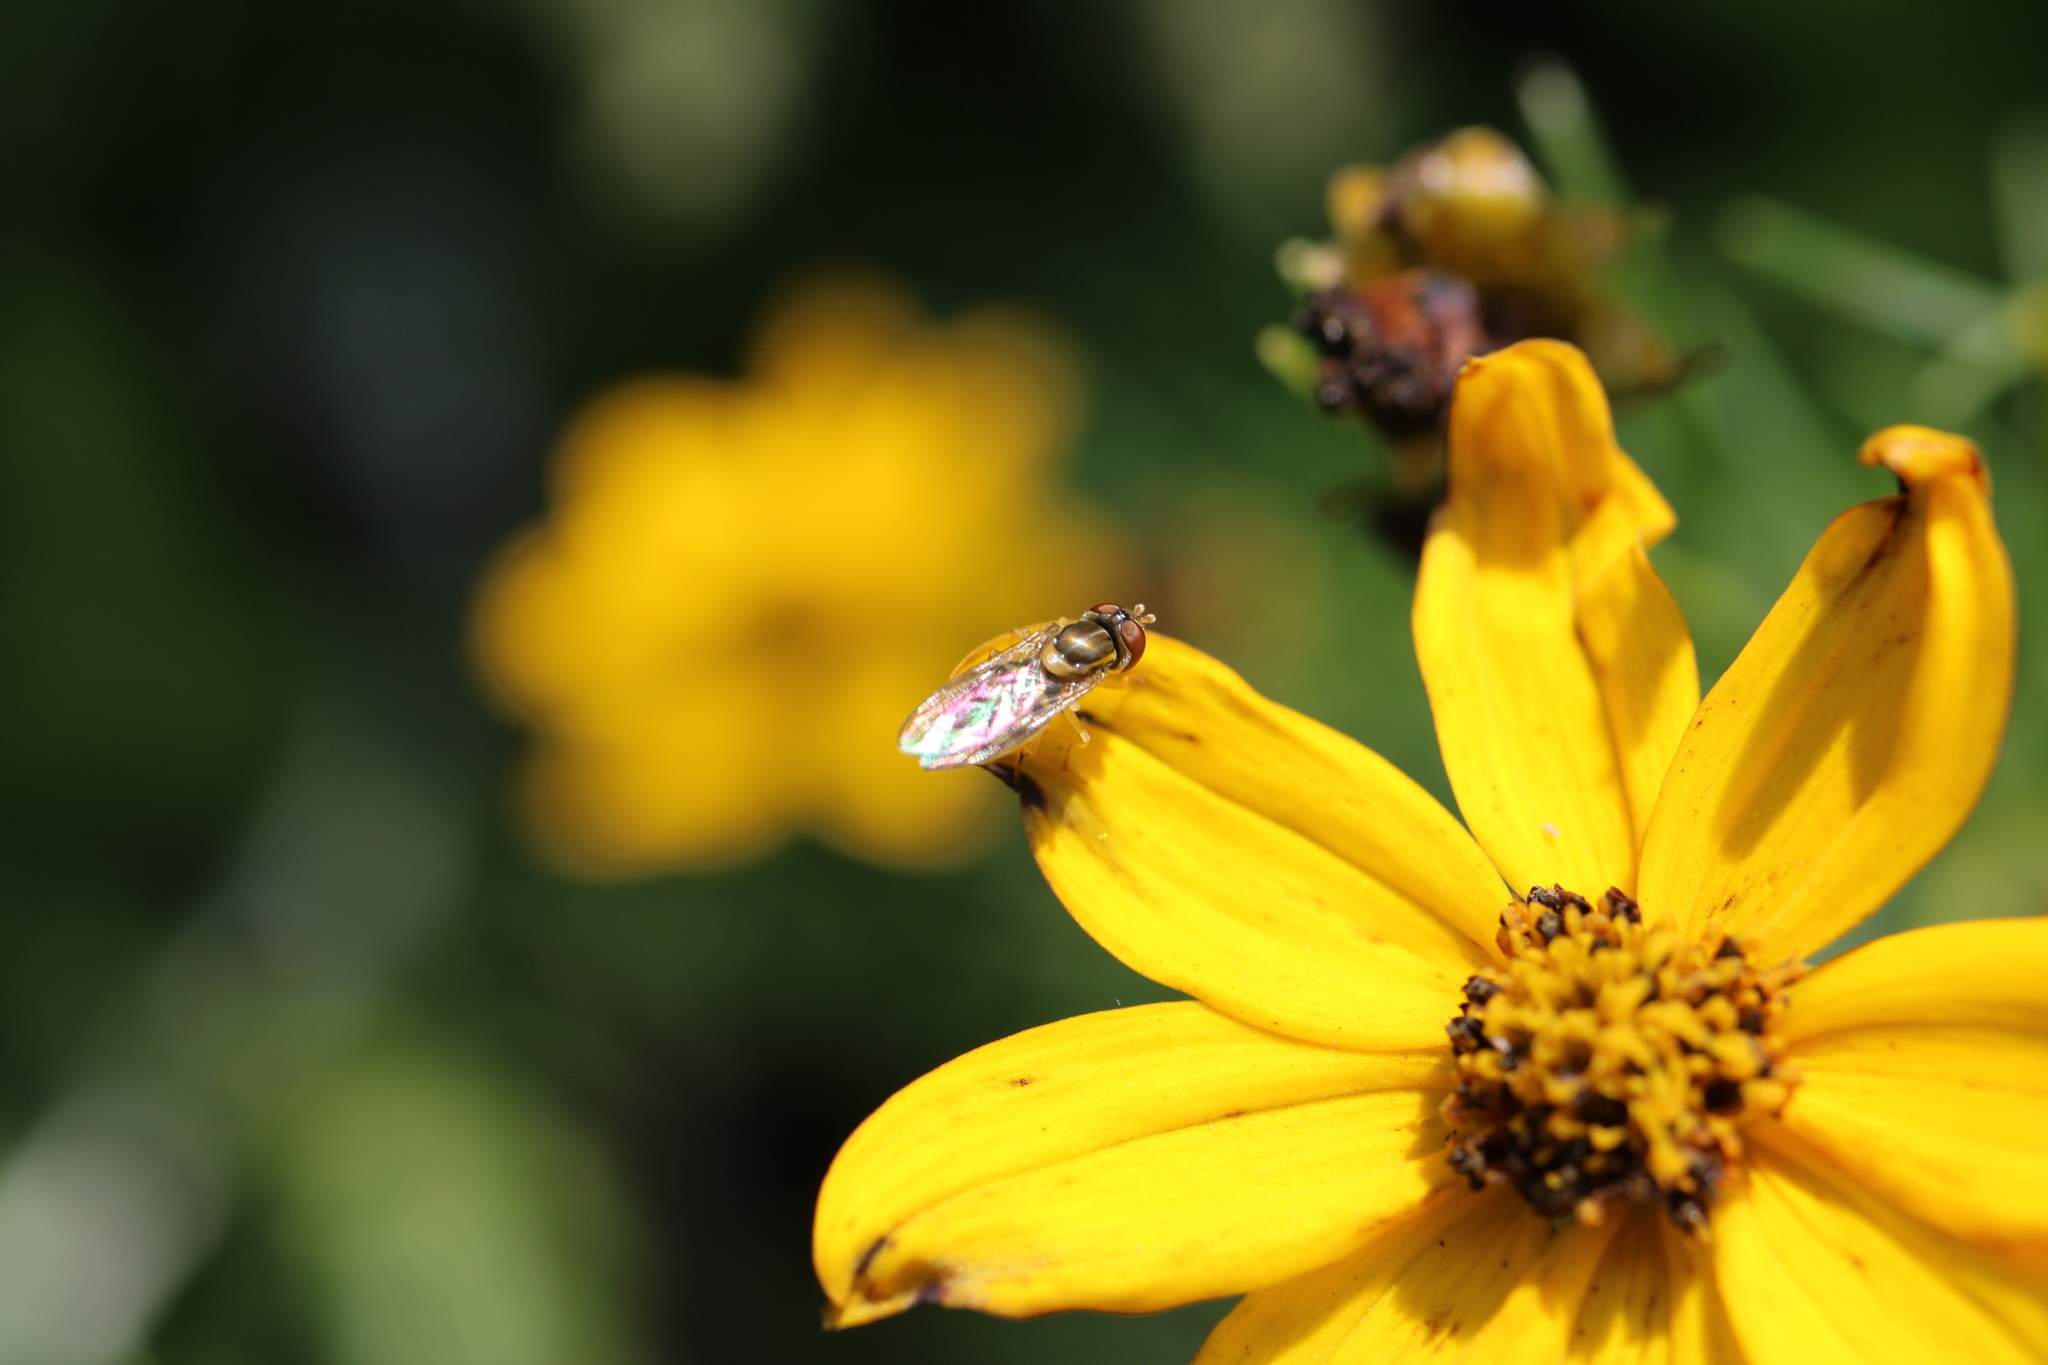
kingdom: Animalia
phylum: Arthropoda
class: Insecta
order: Diptera
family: Syrphidae
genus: Toxomerus
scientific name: Toxomerus marginatus
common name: Syrphid fly
